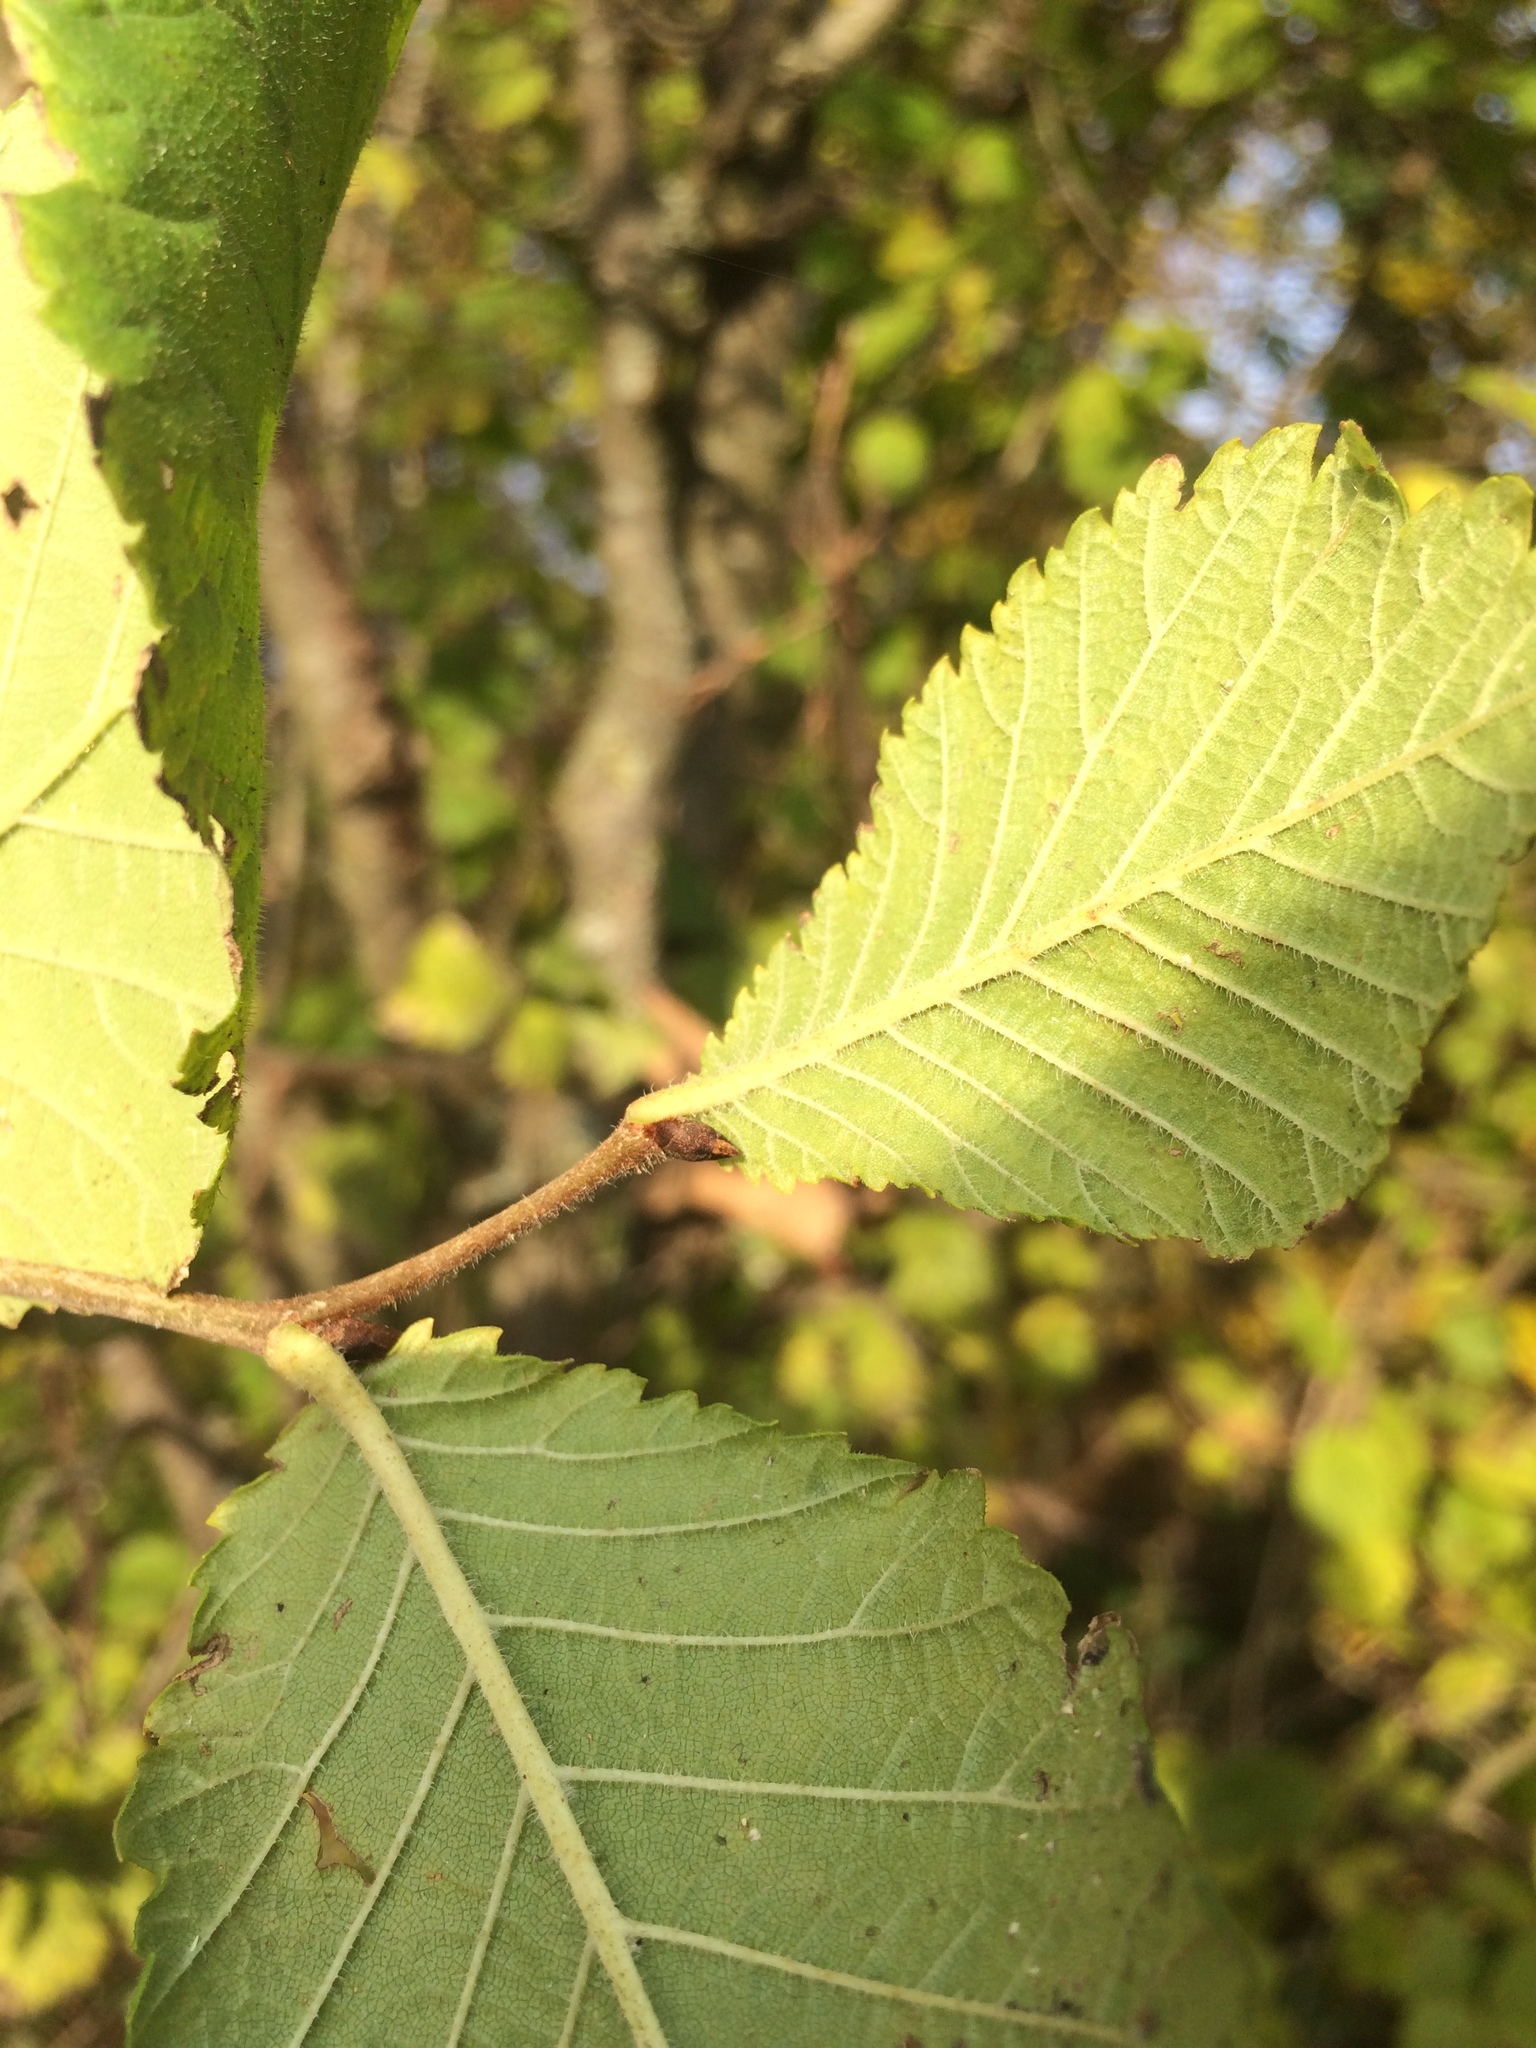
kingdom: Plantae
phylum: Tracheophyta
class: Magnoliopsida
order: Rosales
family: Ulmaceae
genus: Ulmus
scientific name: Ulmus glabra
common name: Wych elm
